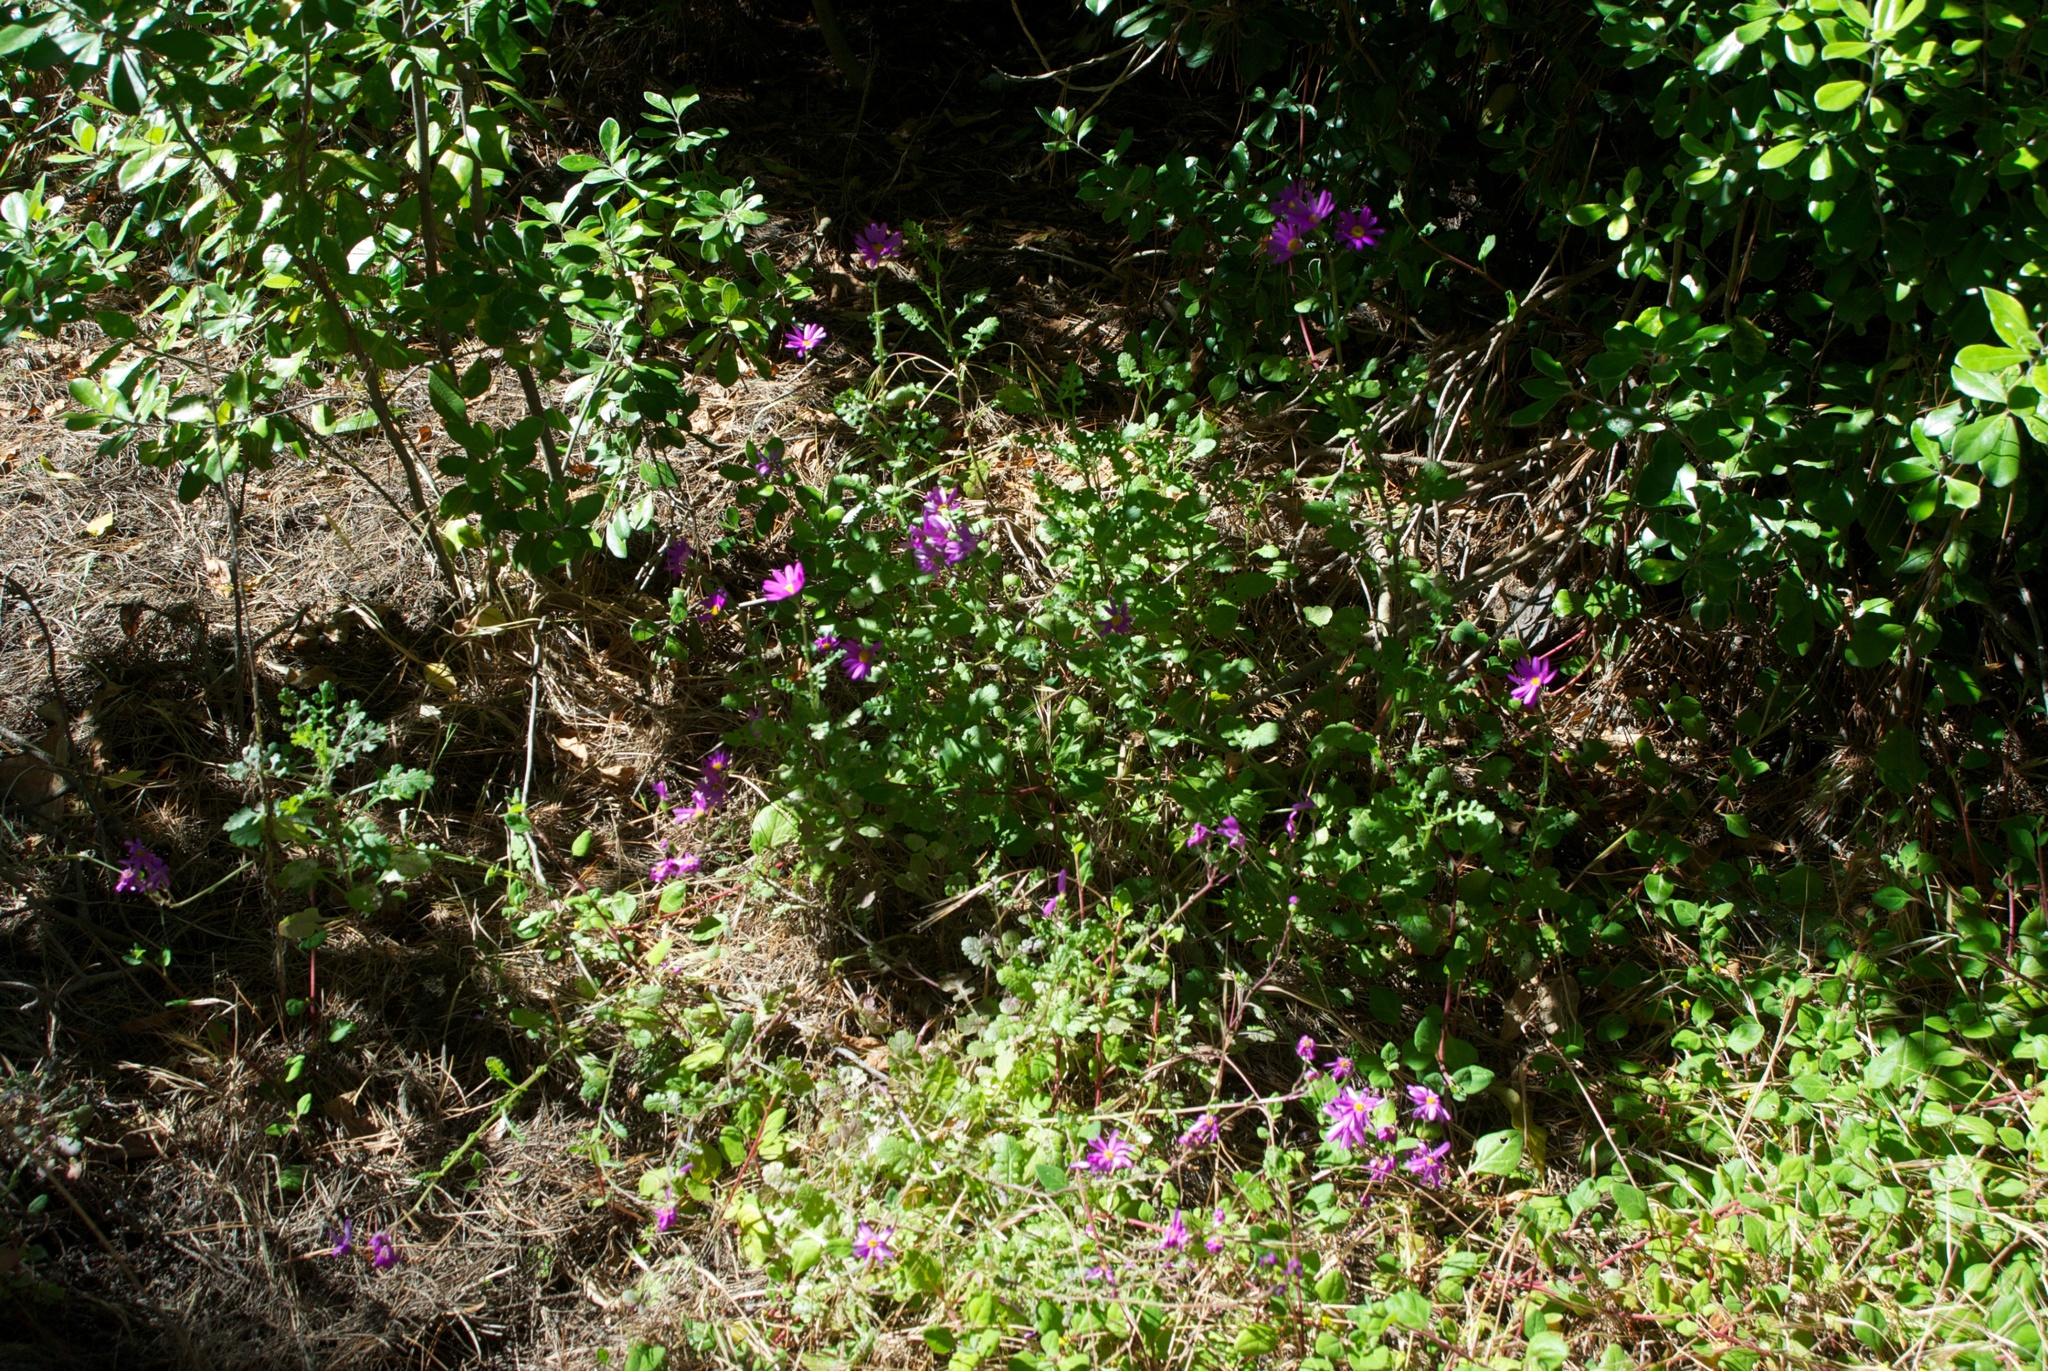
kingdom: Plantae
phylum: Tracheophyta
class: Magnoliopsida
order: Asterales
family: Asteraceae
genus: Senecio
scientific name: Senecio elegans
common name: Purple groundsel
